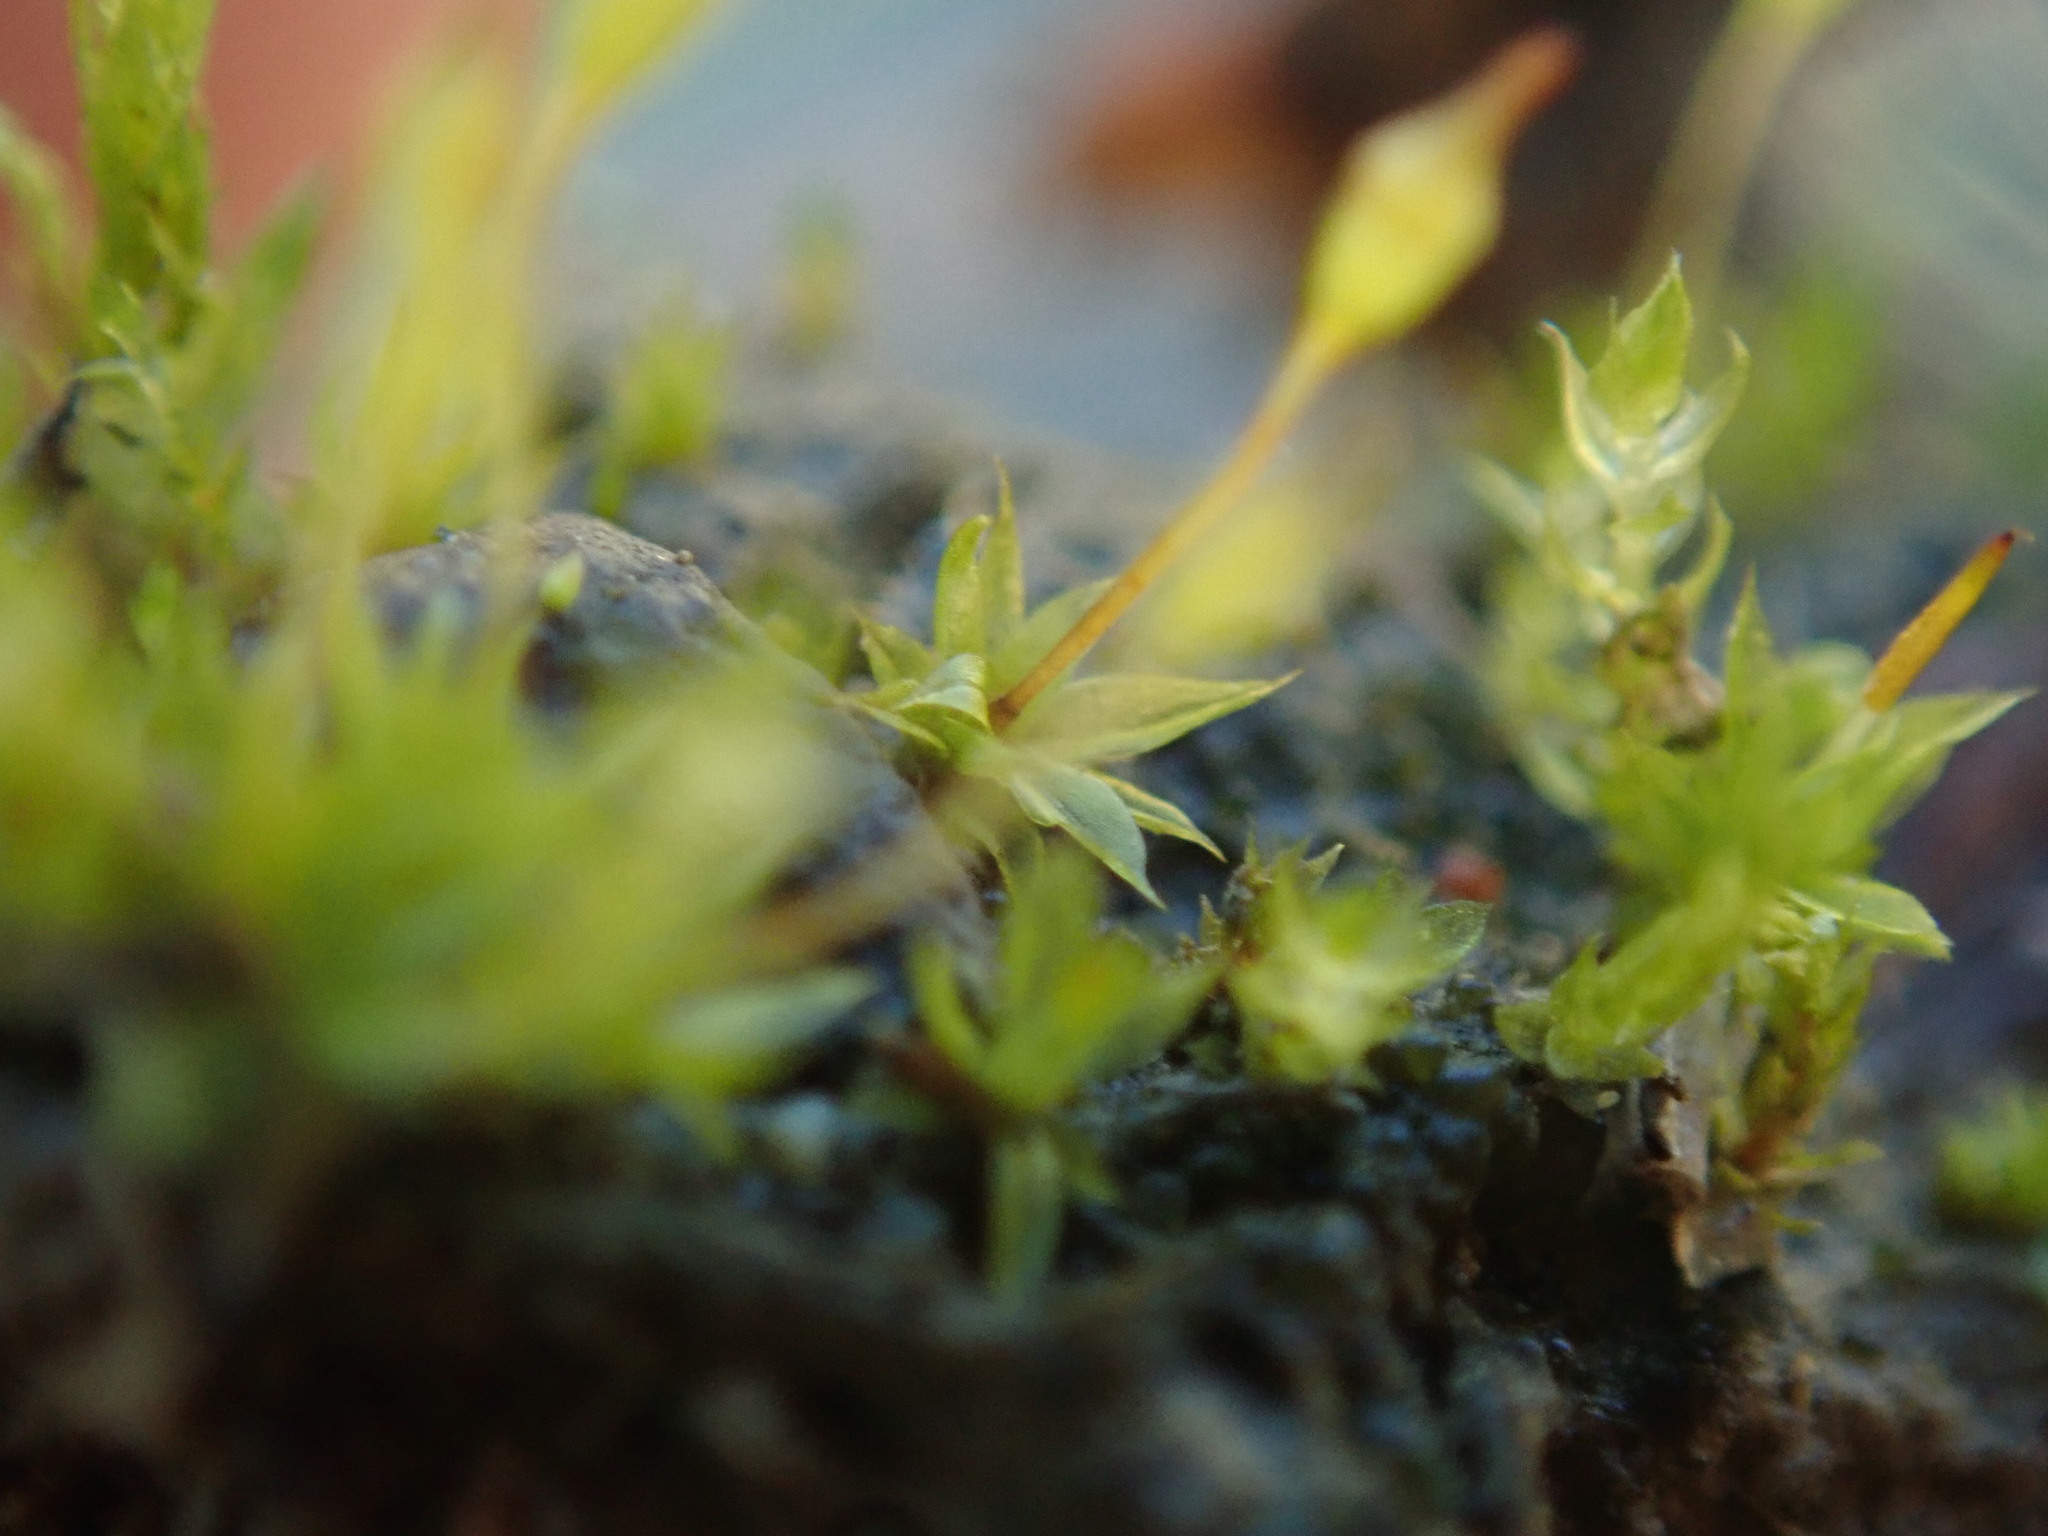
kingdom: Plantae
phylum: Bryophyta
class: Bryopsida
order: Pottiales
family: Pottiaceae
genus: Tortula
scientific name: Tortula truncata
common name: Truncated screw moss
